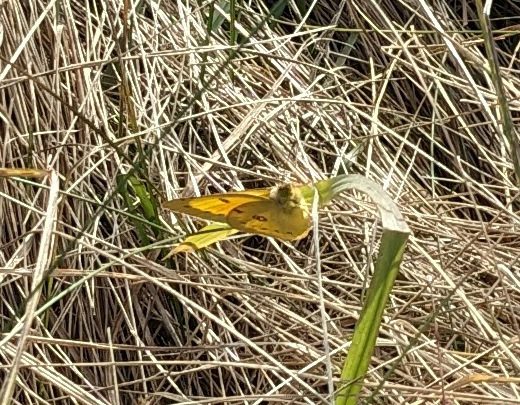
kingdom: Animalia
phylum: Arthropoda
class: Insecta
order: Lepidoptera
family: Pieridae
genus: Colias
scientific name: Colias eurytheme
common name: Alfalfa butterfly
